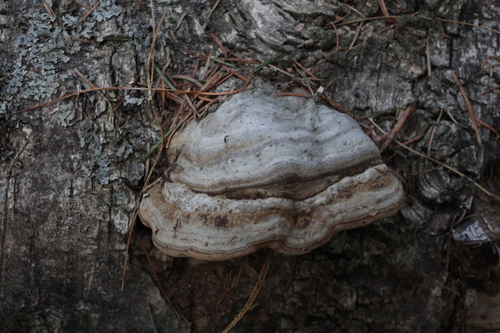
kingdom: Fungi
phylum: Basidiomycota
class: Agaricomycetes
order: Polyporales
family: Polyporaceae
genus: Fomes
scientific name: Fomes fomentarius
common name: Hoof fungus
